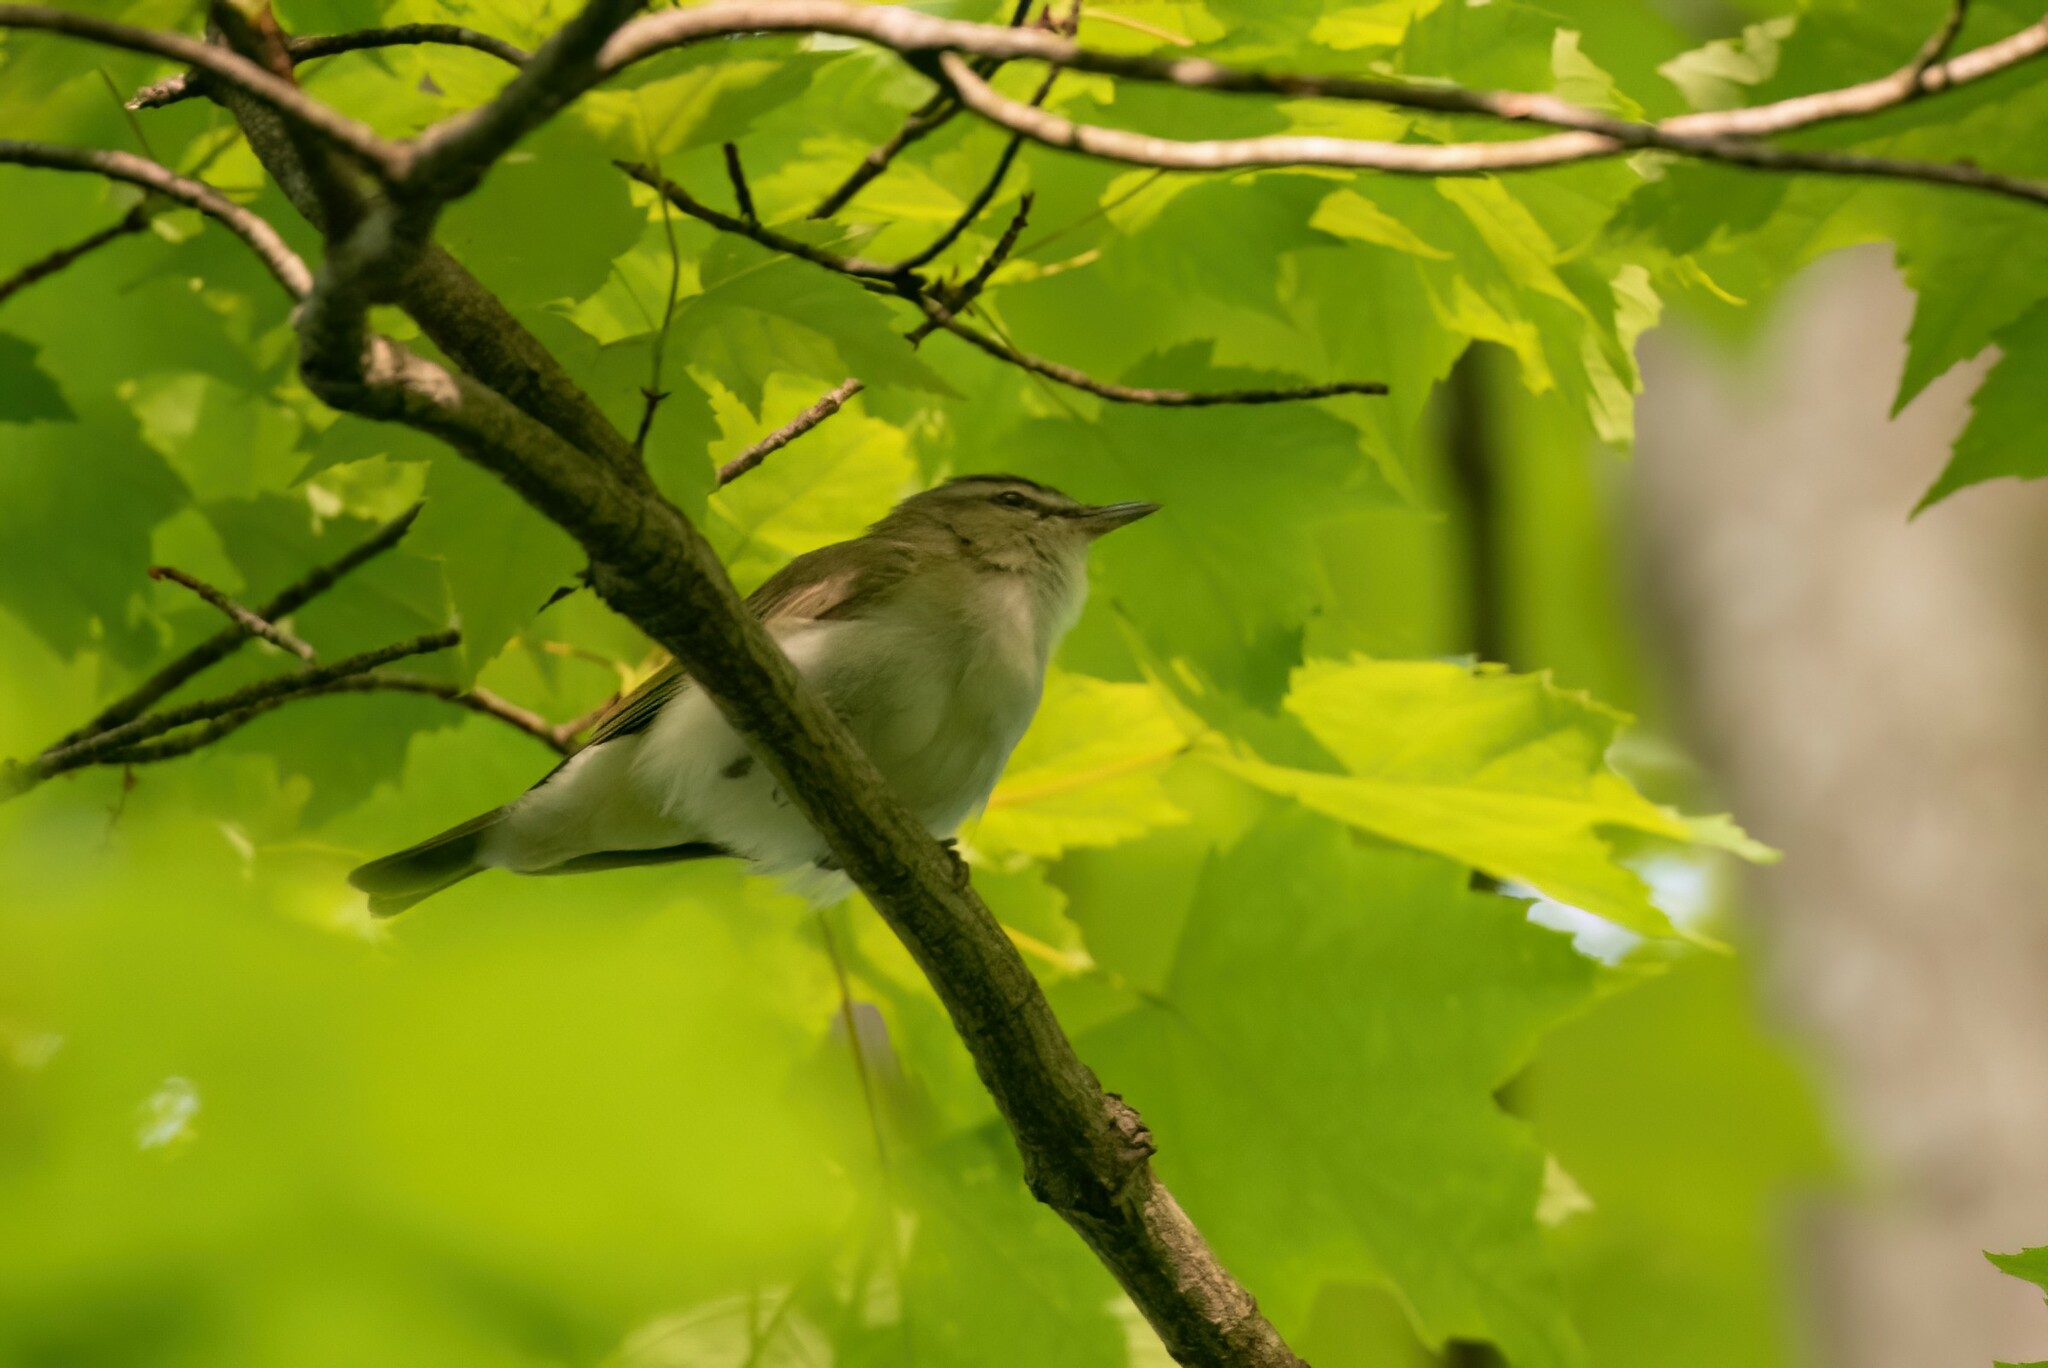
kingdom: Animalia
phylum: Chordata
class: Aves
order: Passeriformes
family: Vireonidae
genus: Vireo
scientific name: Vireo olivaceus
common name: Red-eyed vireo
